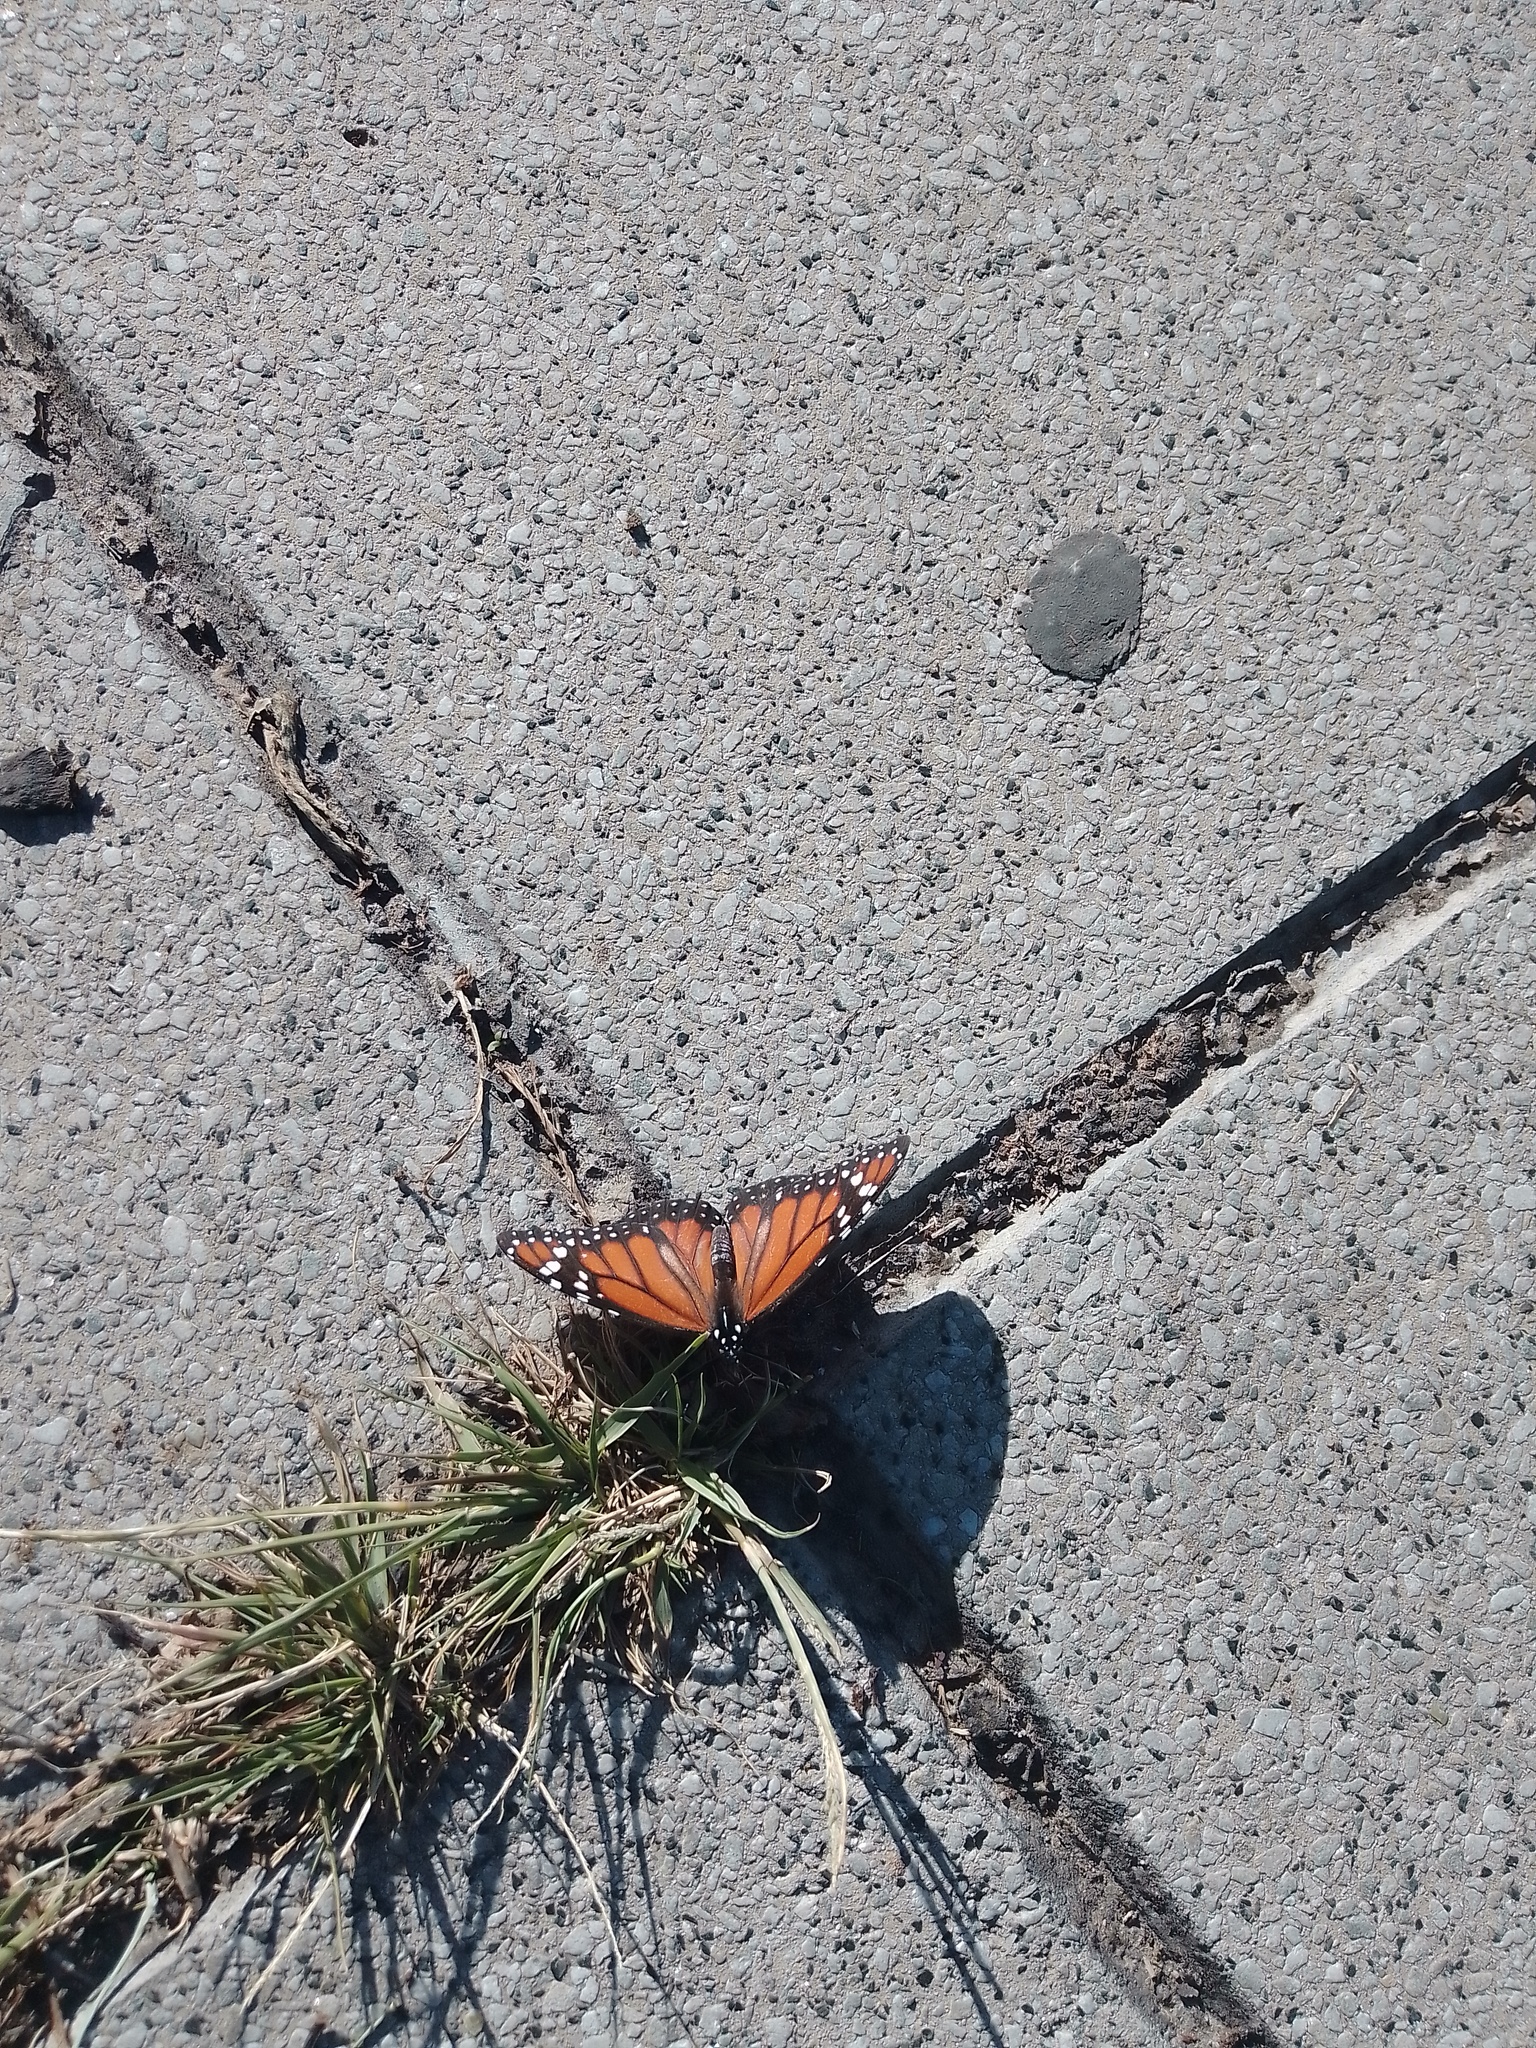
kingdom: Animalia
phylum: Arthropoda
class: Insecta
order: Lepidoptera
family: Nymphalidae
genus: Danaus
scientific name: Danaus erippus
